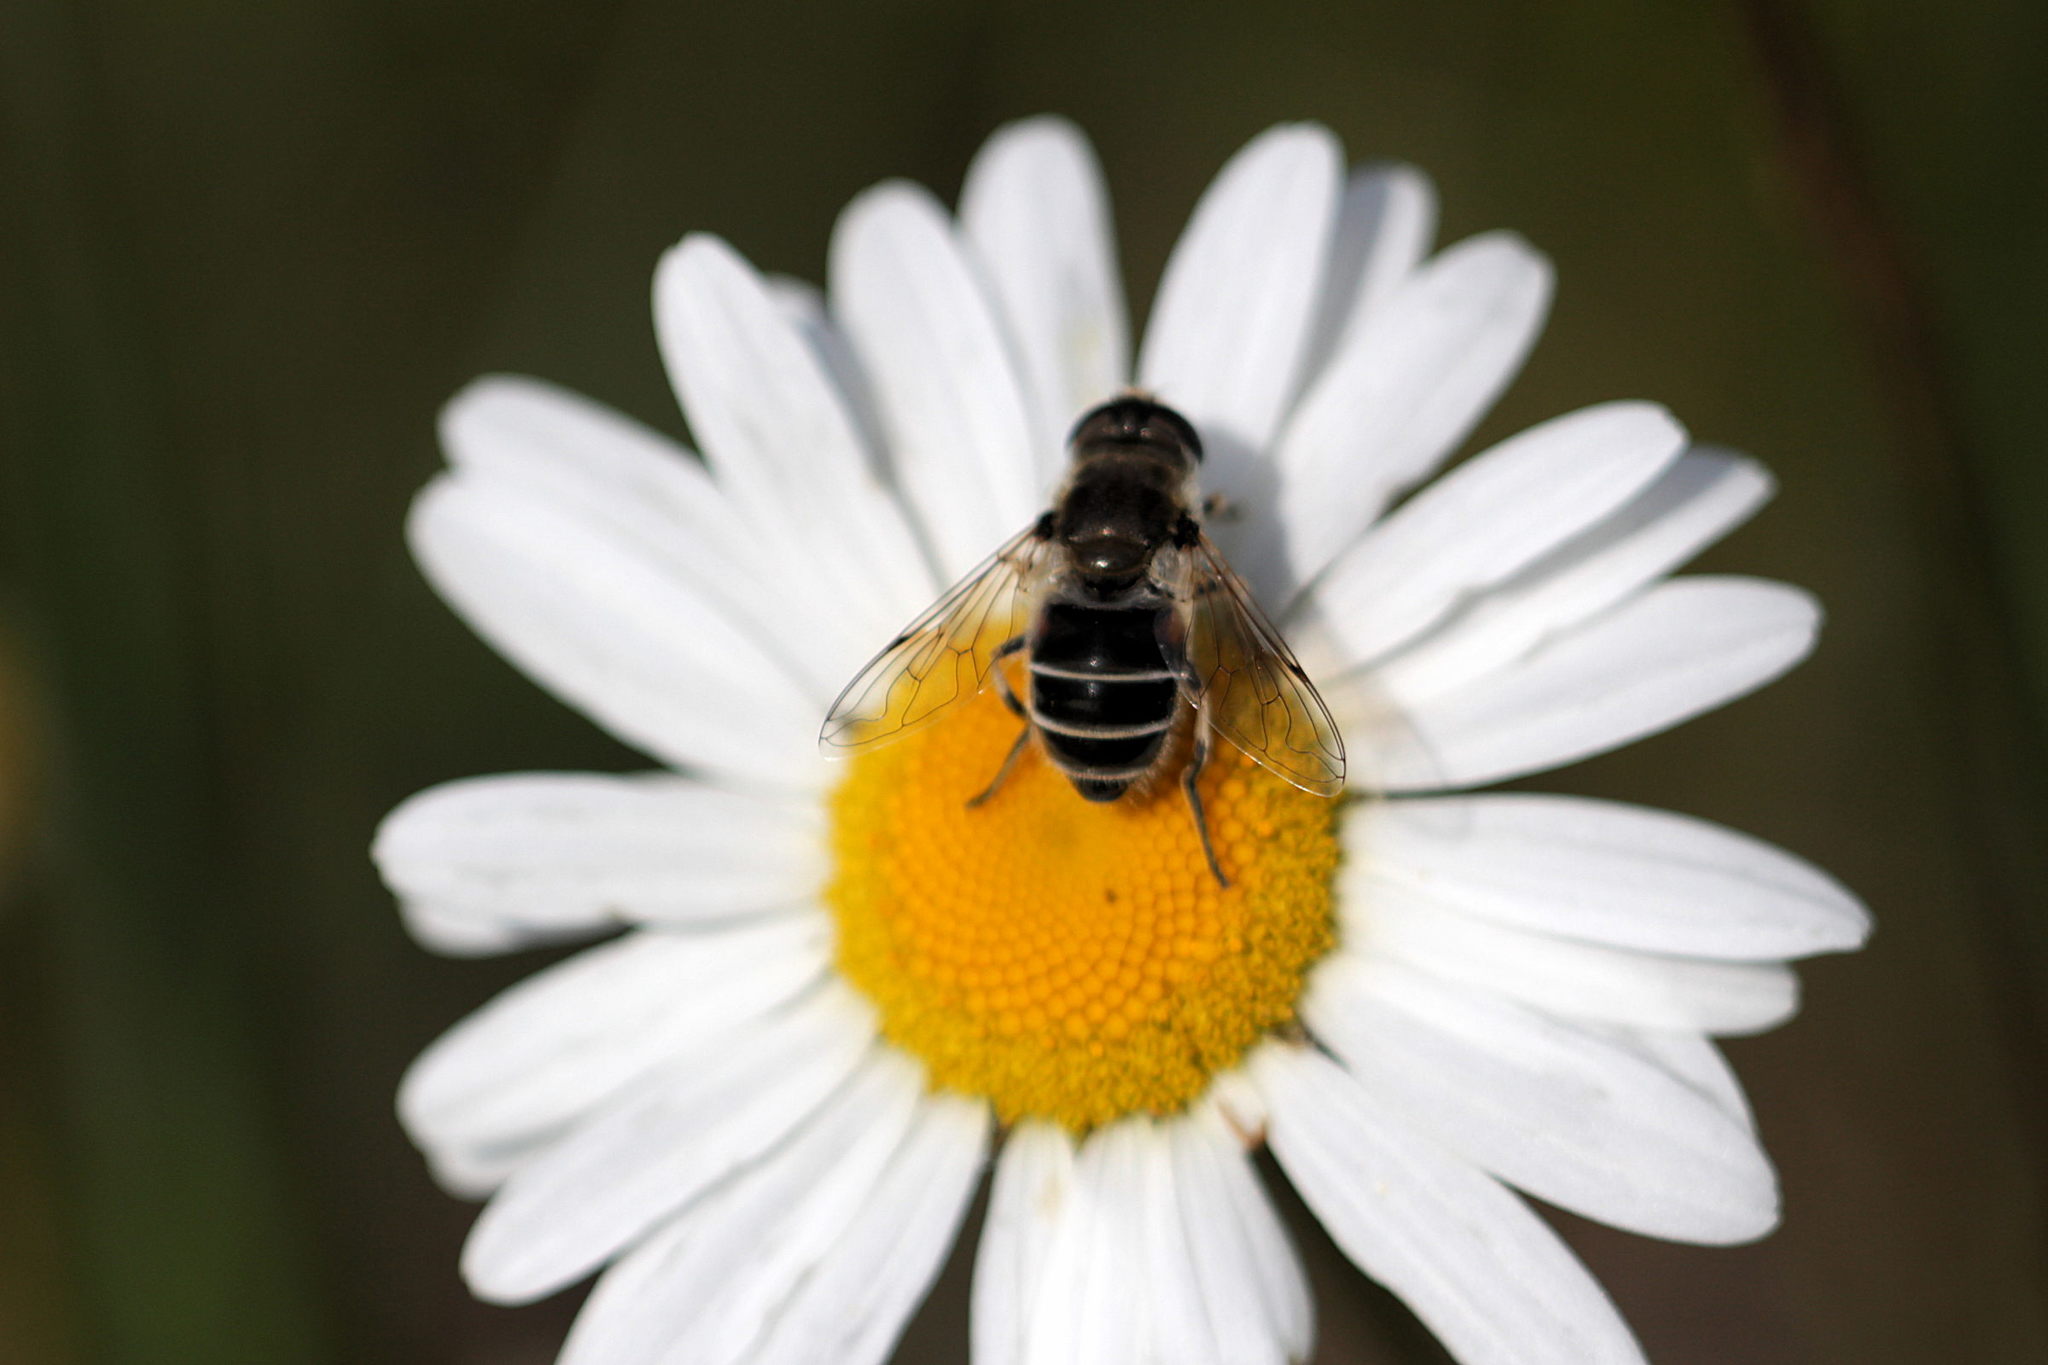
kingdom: Animalia
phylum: Arthropoda
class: Insecta
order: Diptera
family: Syrphidae
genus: Eristalis
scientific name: Eristalis arbustorum
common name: Hover fly
